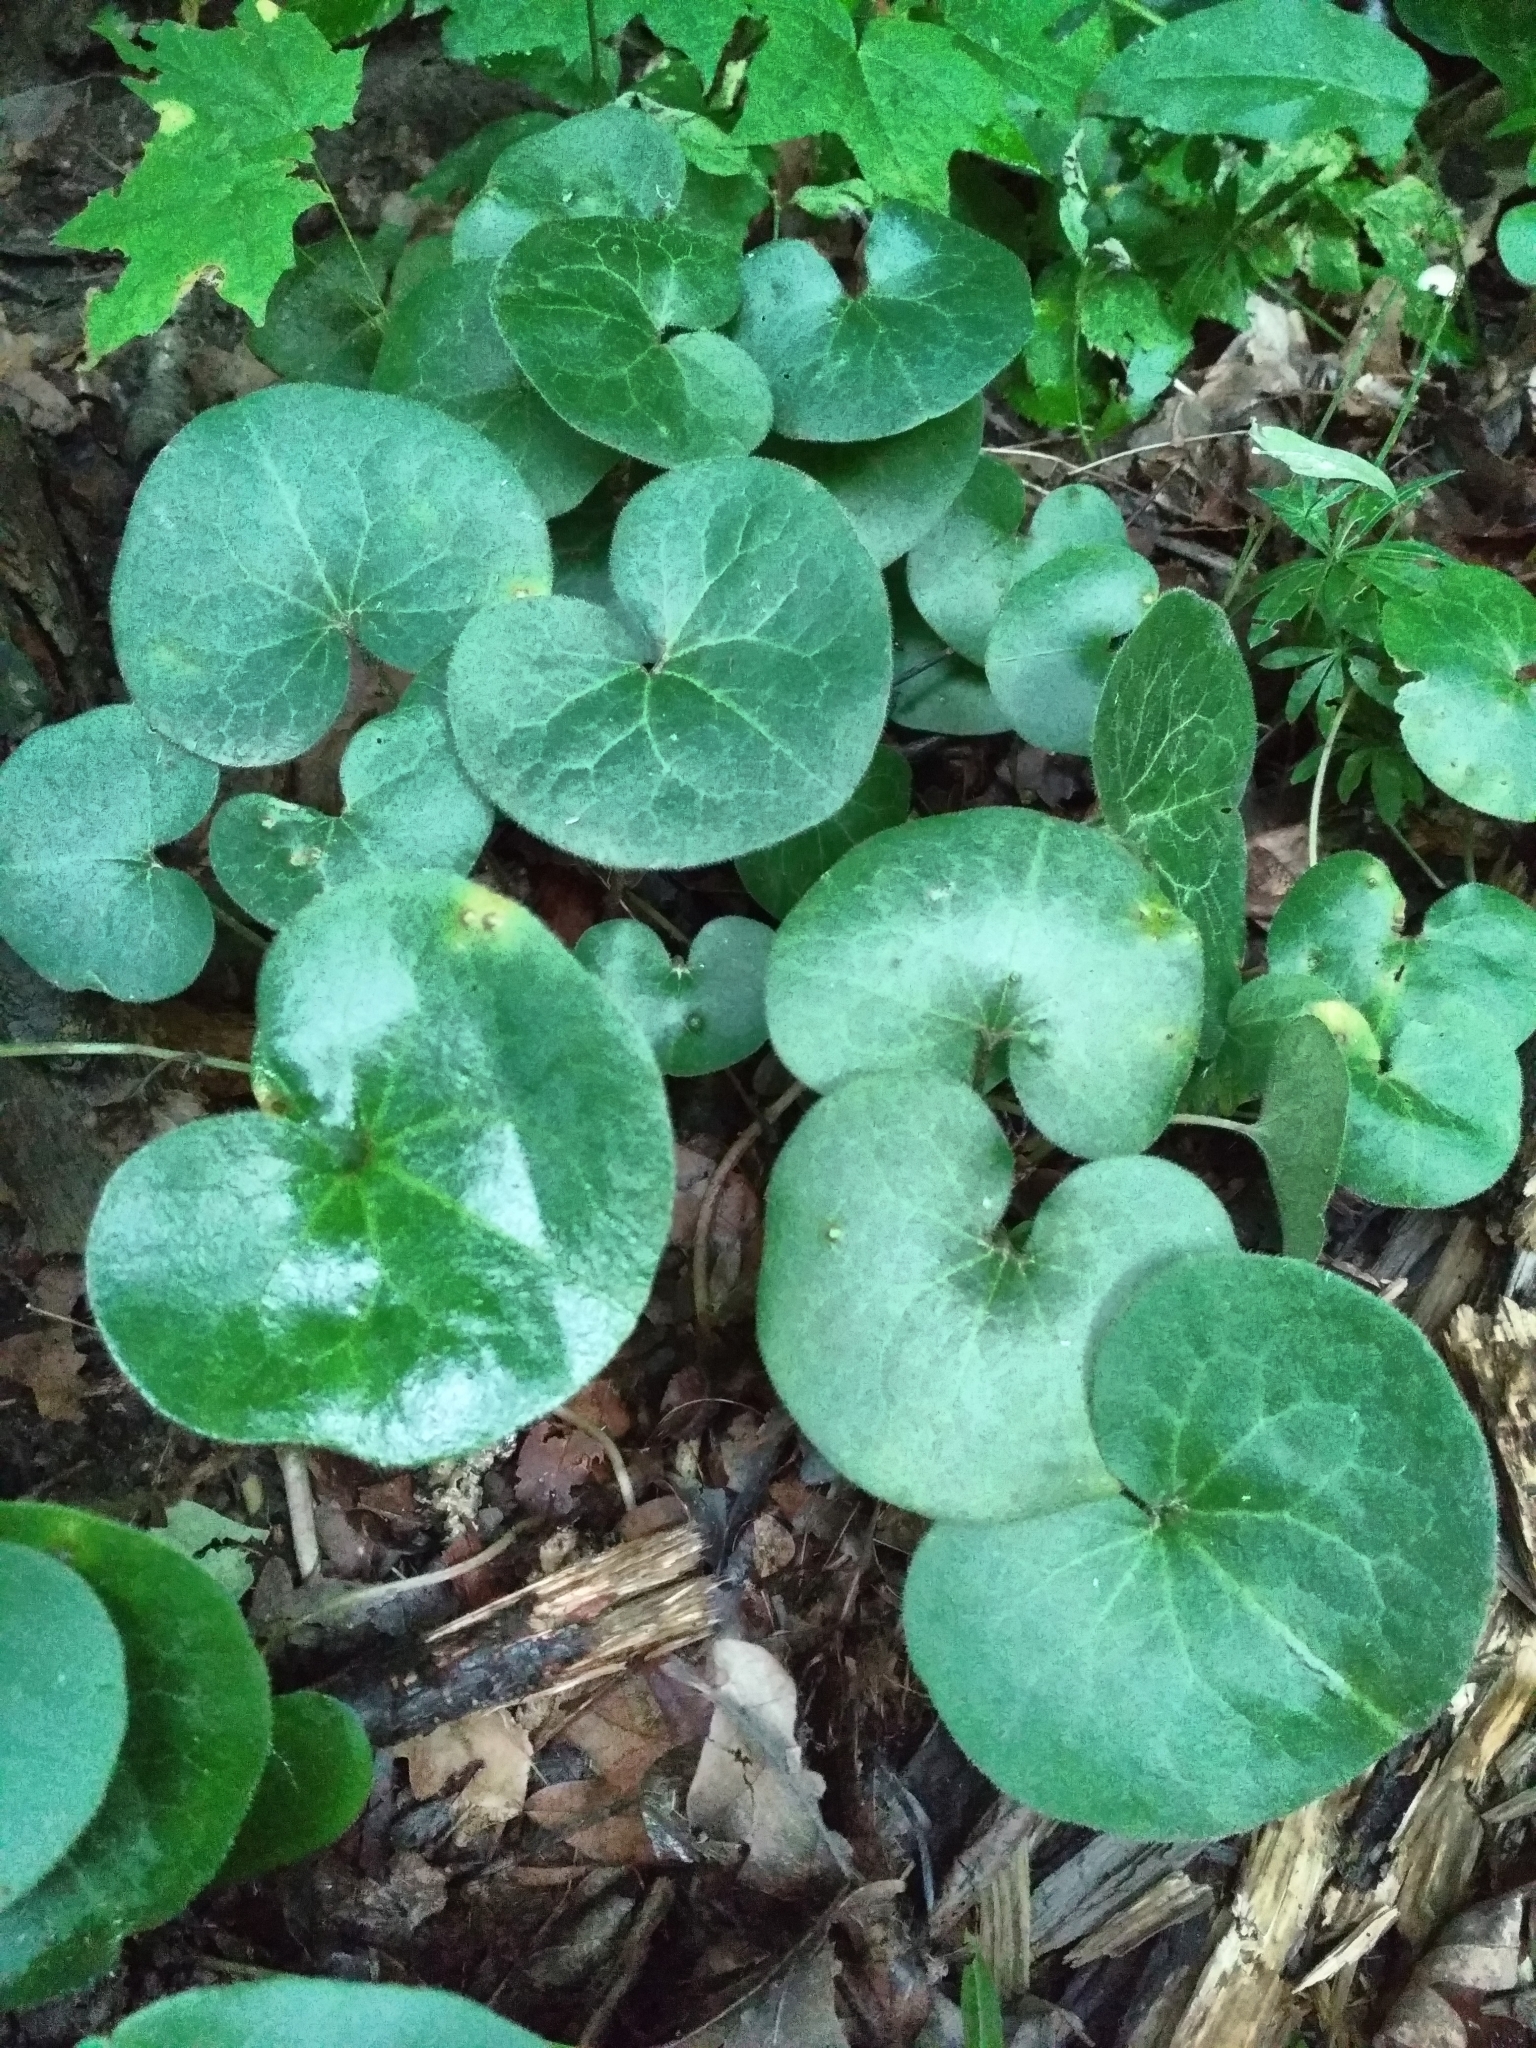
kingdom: Plantae
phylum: Tracheophyta
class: Magnoliopsida
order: Piperales
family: Aristolochiaceae
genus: Asarum
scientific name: Asarum europaeum
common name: Asarabacca
